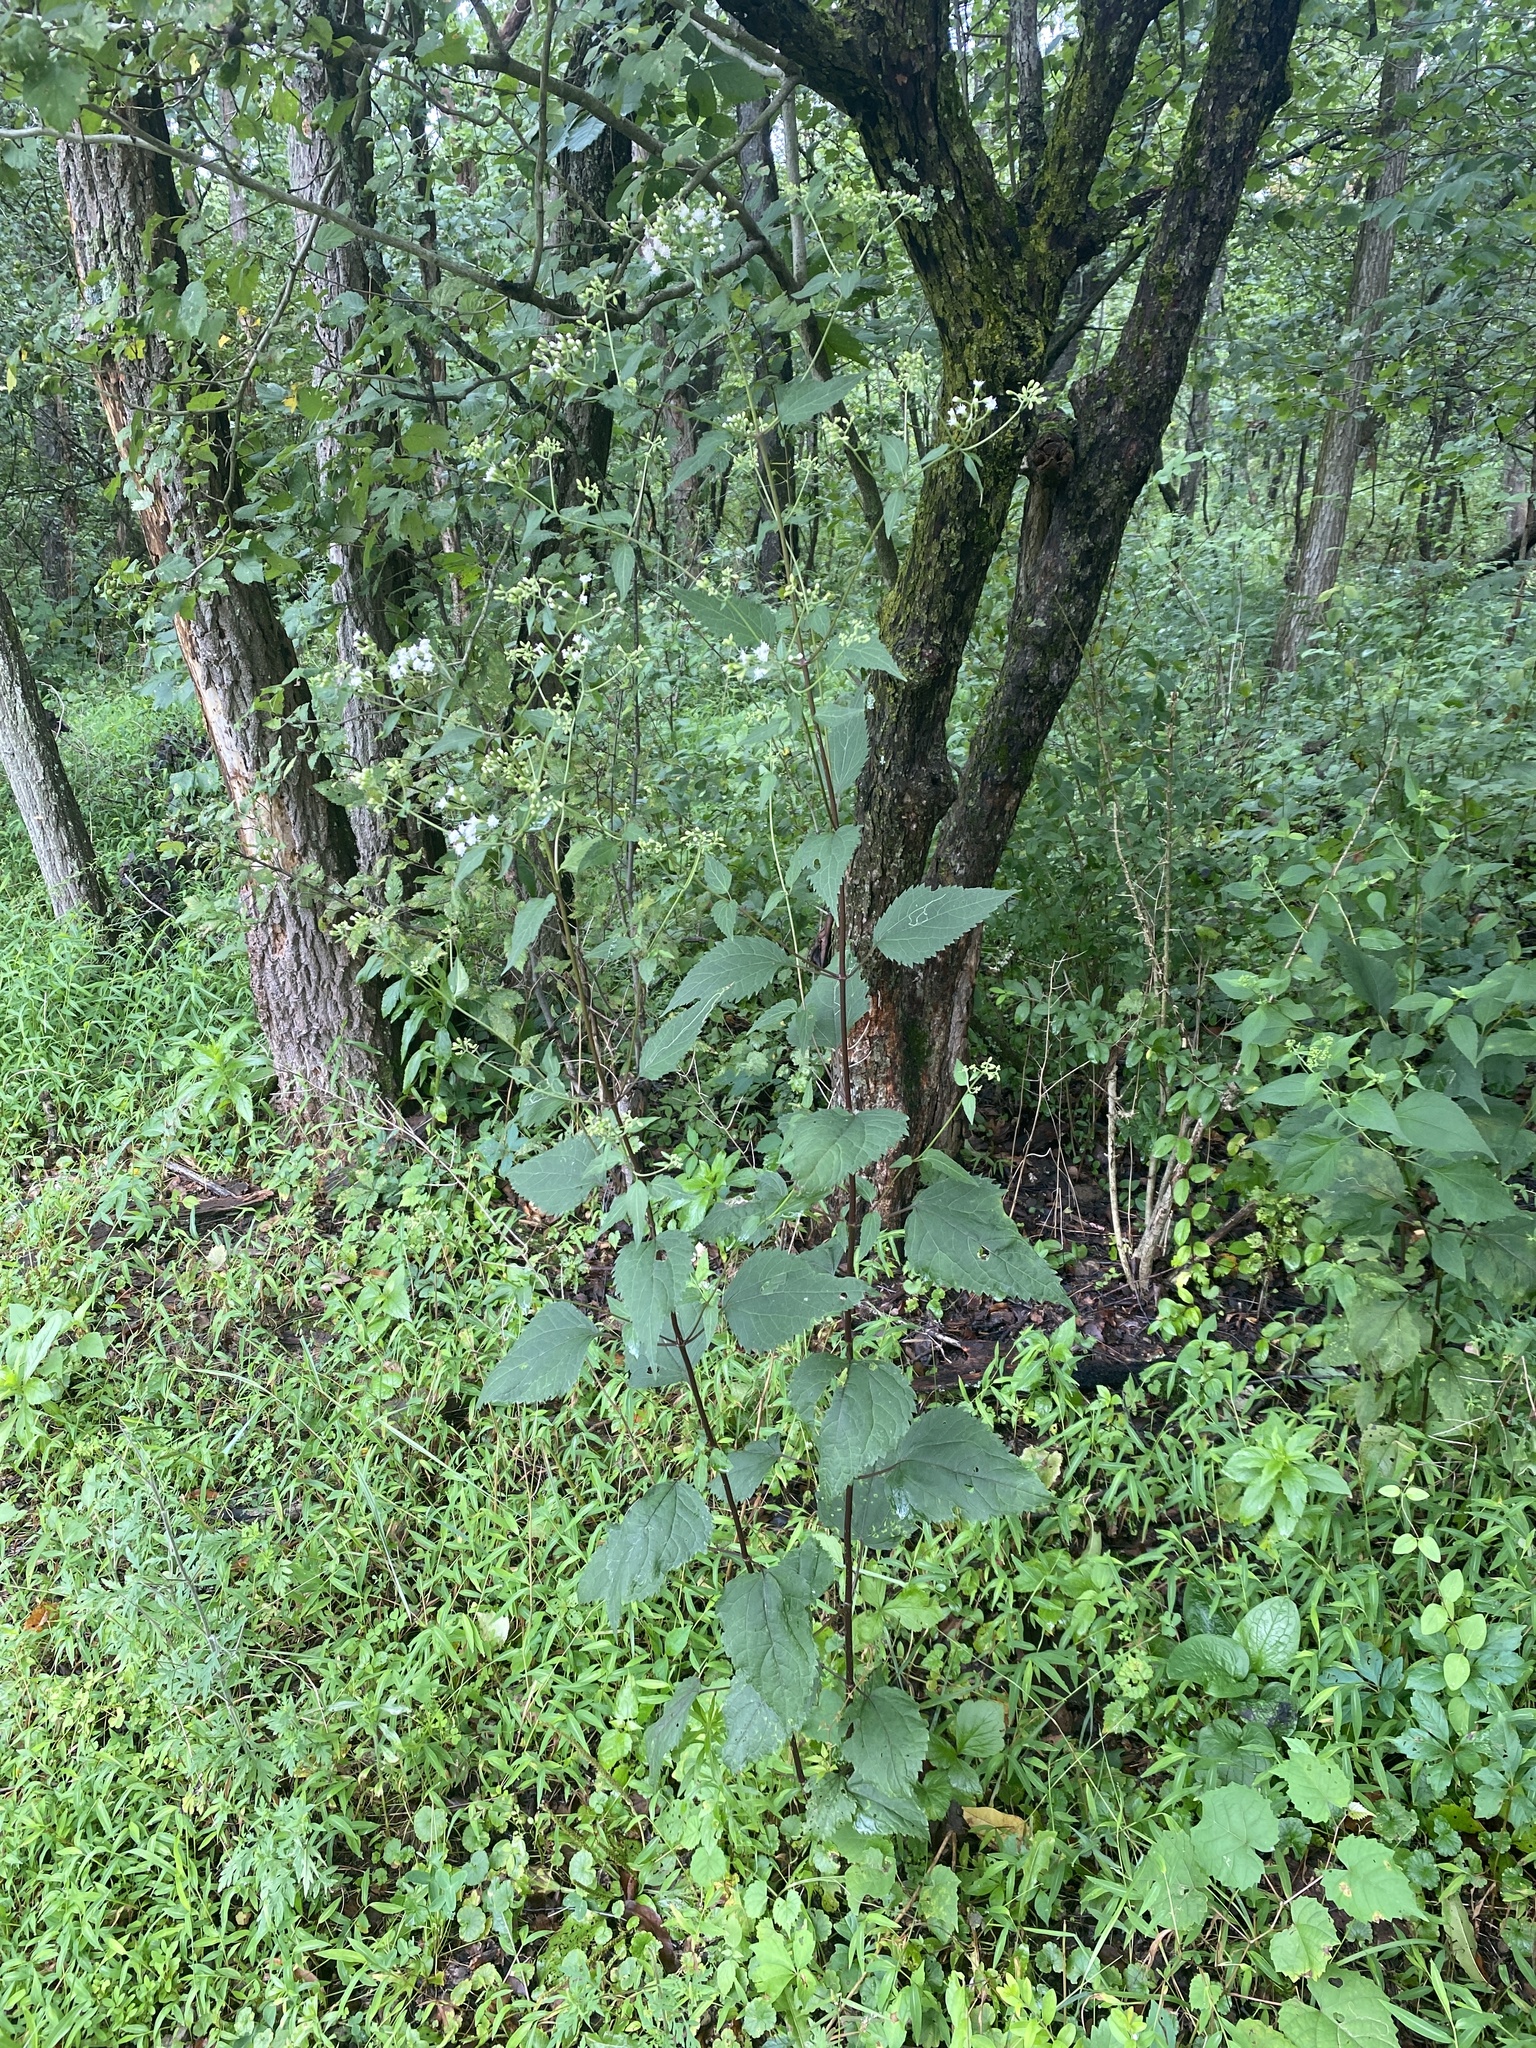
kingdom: Plantae
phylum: Tracheophyta
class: Magnoliopsida
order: Asterales
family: Asteraceae
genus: Ageratina
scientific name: Ageratina altissima
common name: White snakeroot
